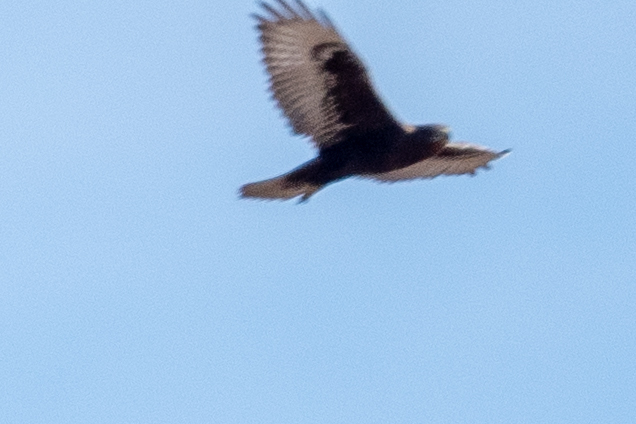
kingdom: Animalia
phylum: Chordata
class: Aves
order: Accipitriformes
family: Accipitridae
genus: Buteo
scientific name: Buteo regalis
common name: Ferruginous hawk
